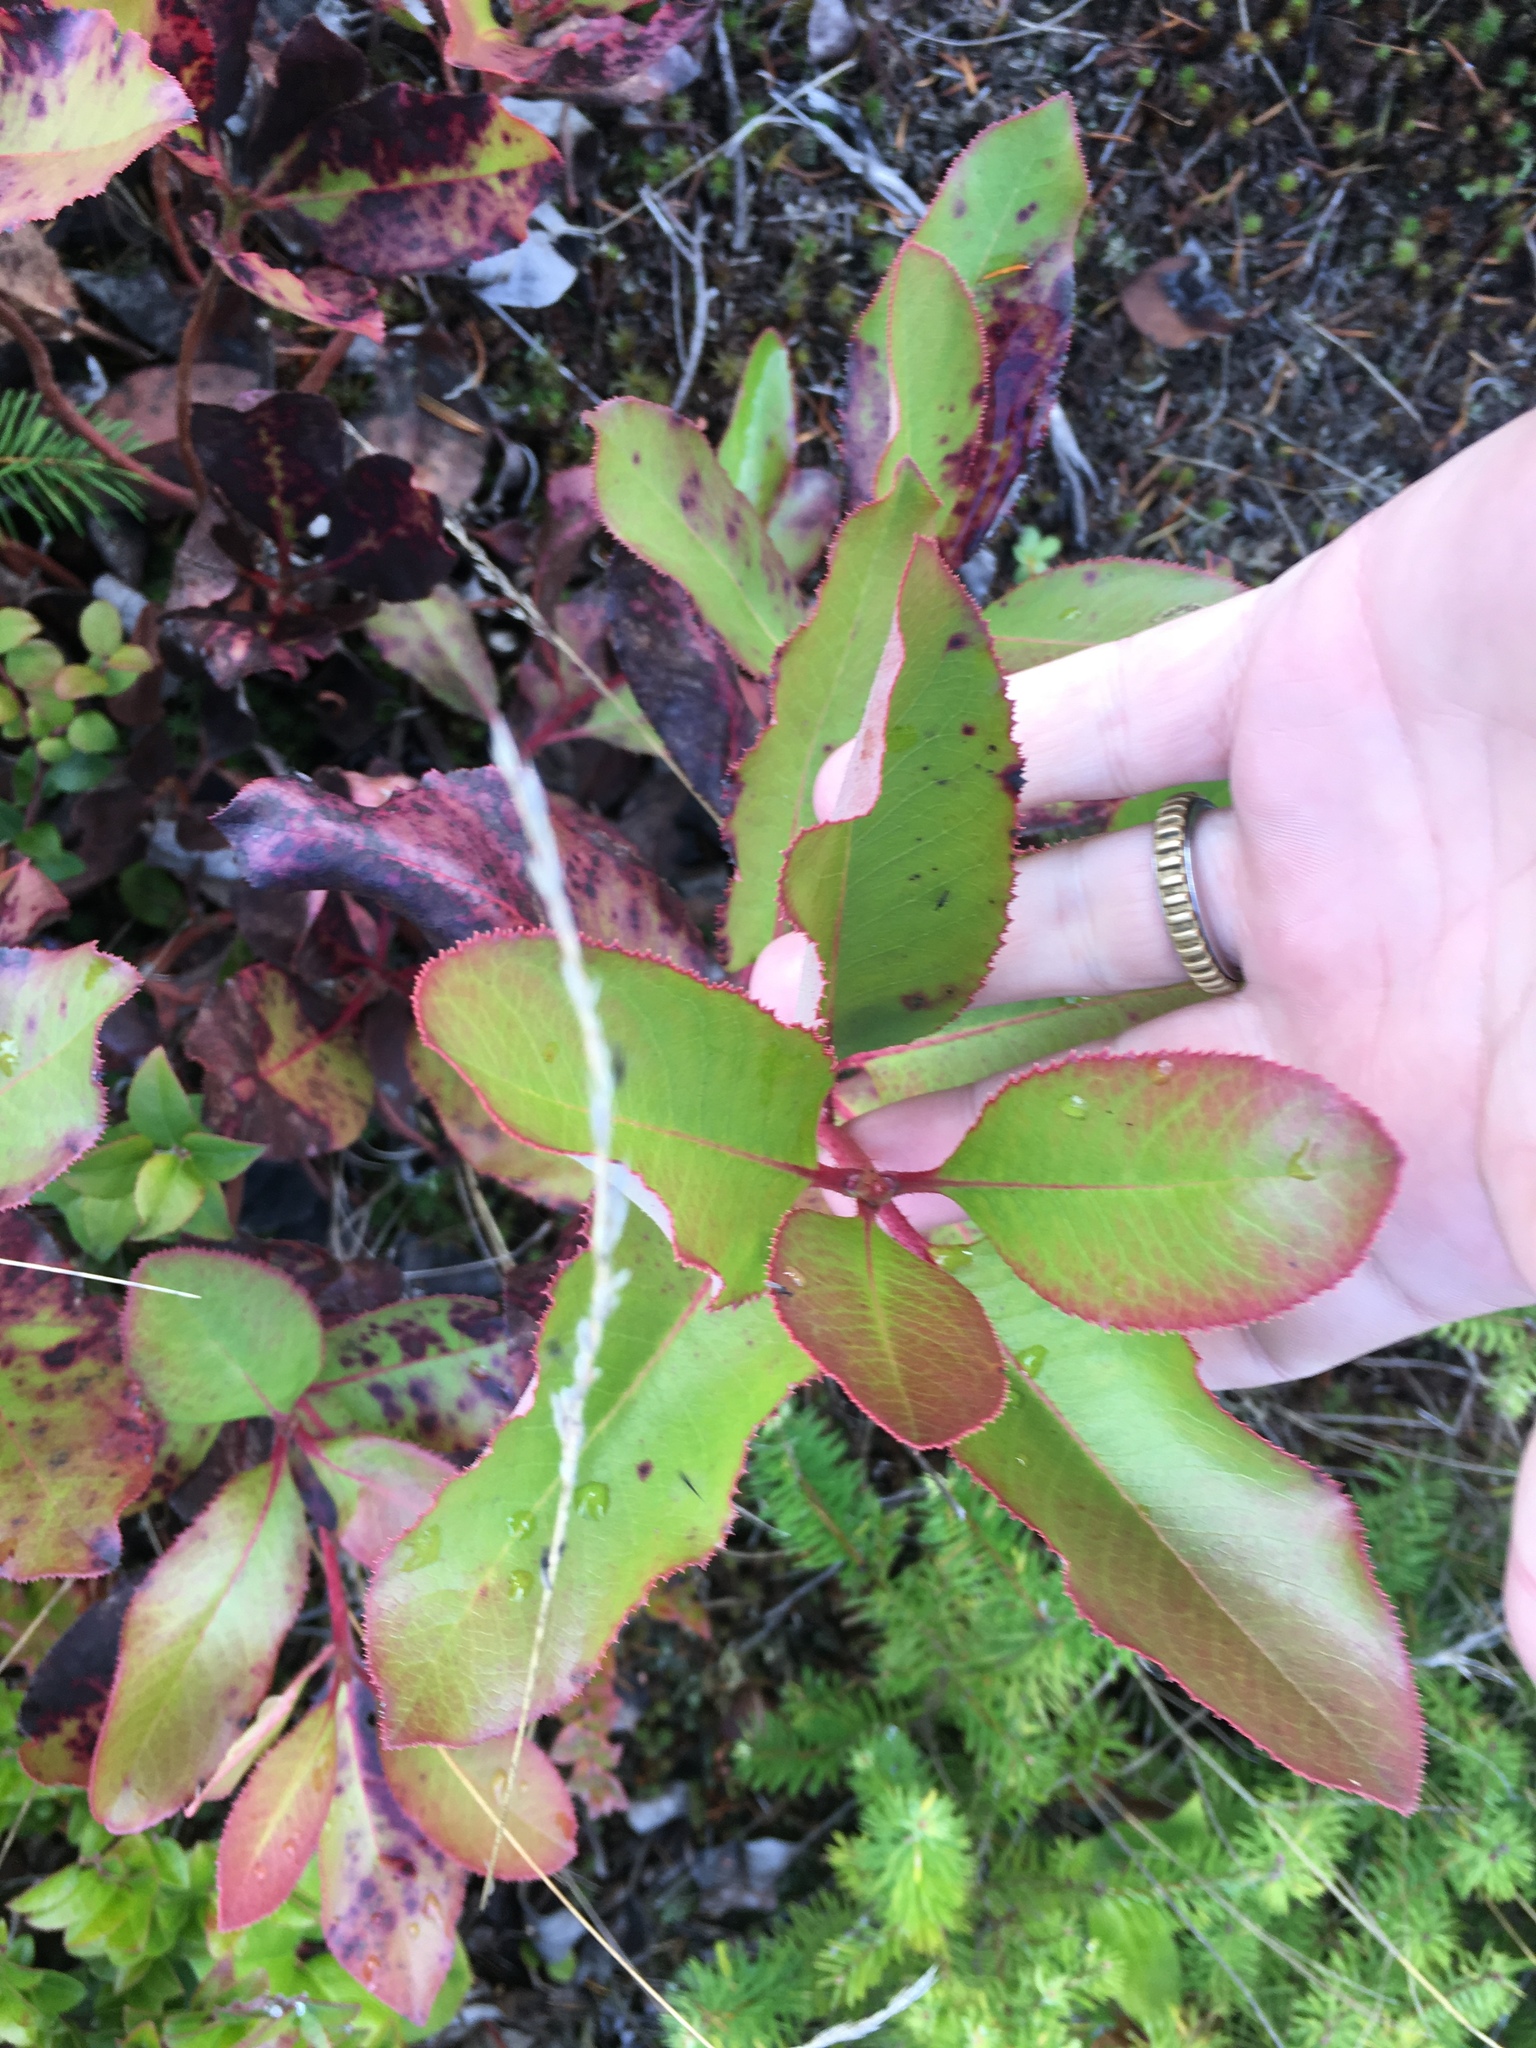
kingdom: Plantae
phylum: Tracheophyta
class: Magnoliopsida
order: Ericales
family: Ericaceae
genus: Arbutus
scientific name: Arbutus menziesii
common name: Pacific madrone
